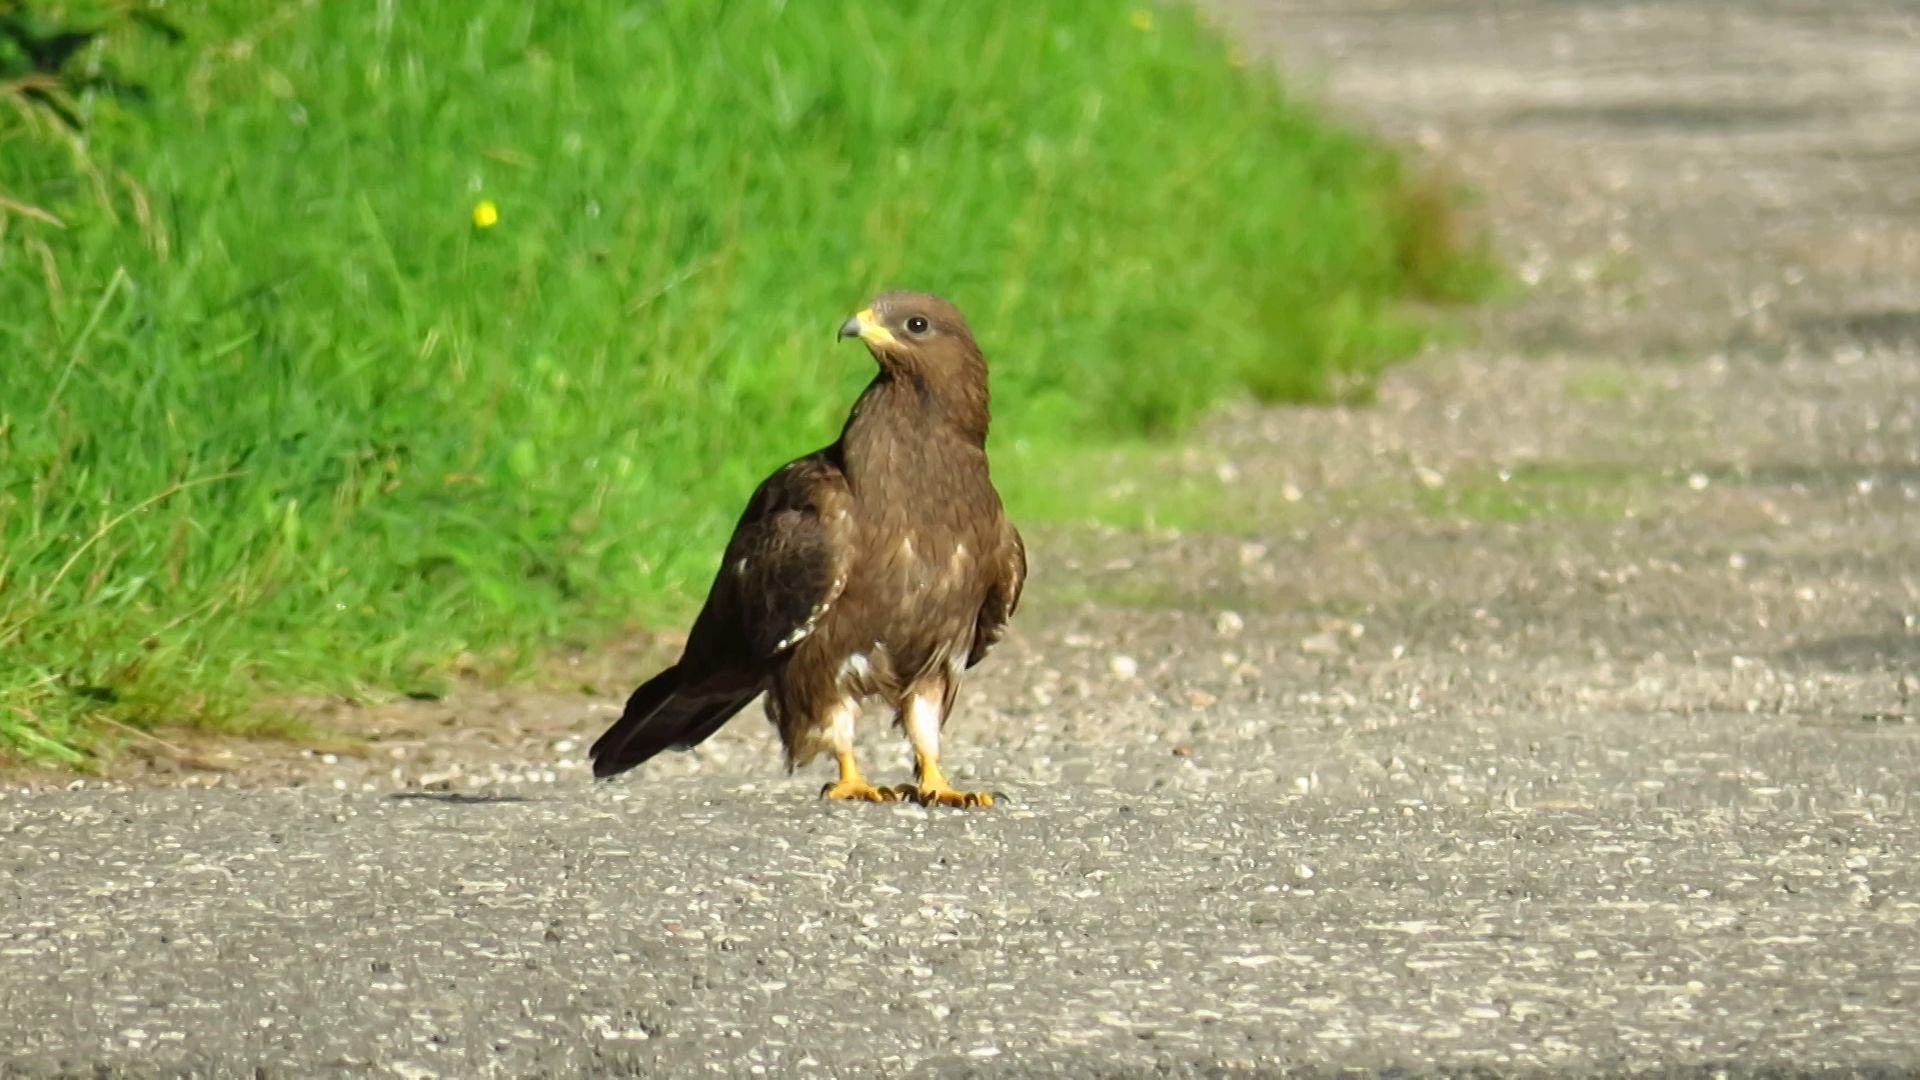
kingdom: Animalia
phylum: Chordata
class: Aves
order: Accipitriformes
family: Accipitridae
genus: Pernis
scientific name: Pernis apivorus
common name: European honey buzzard
